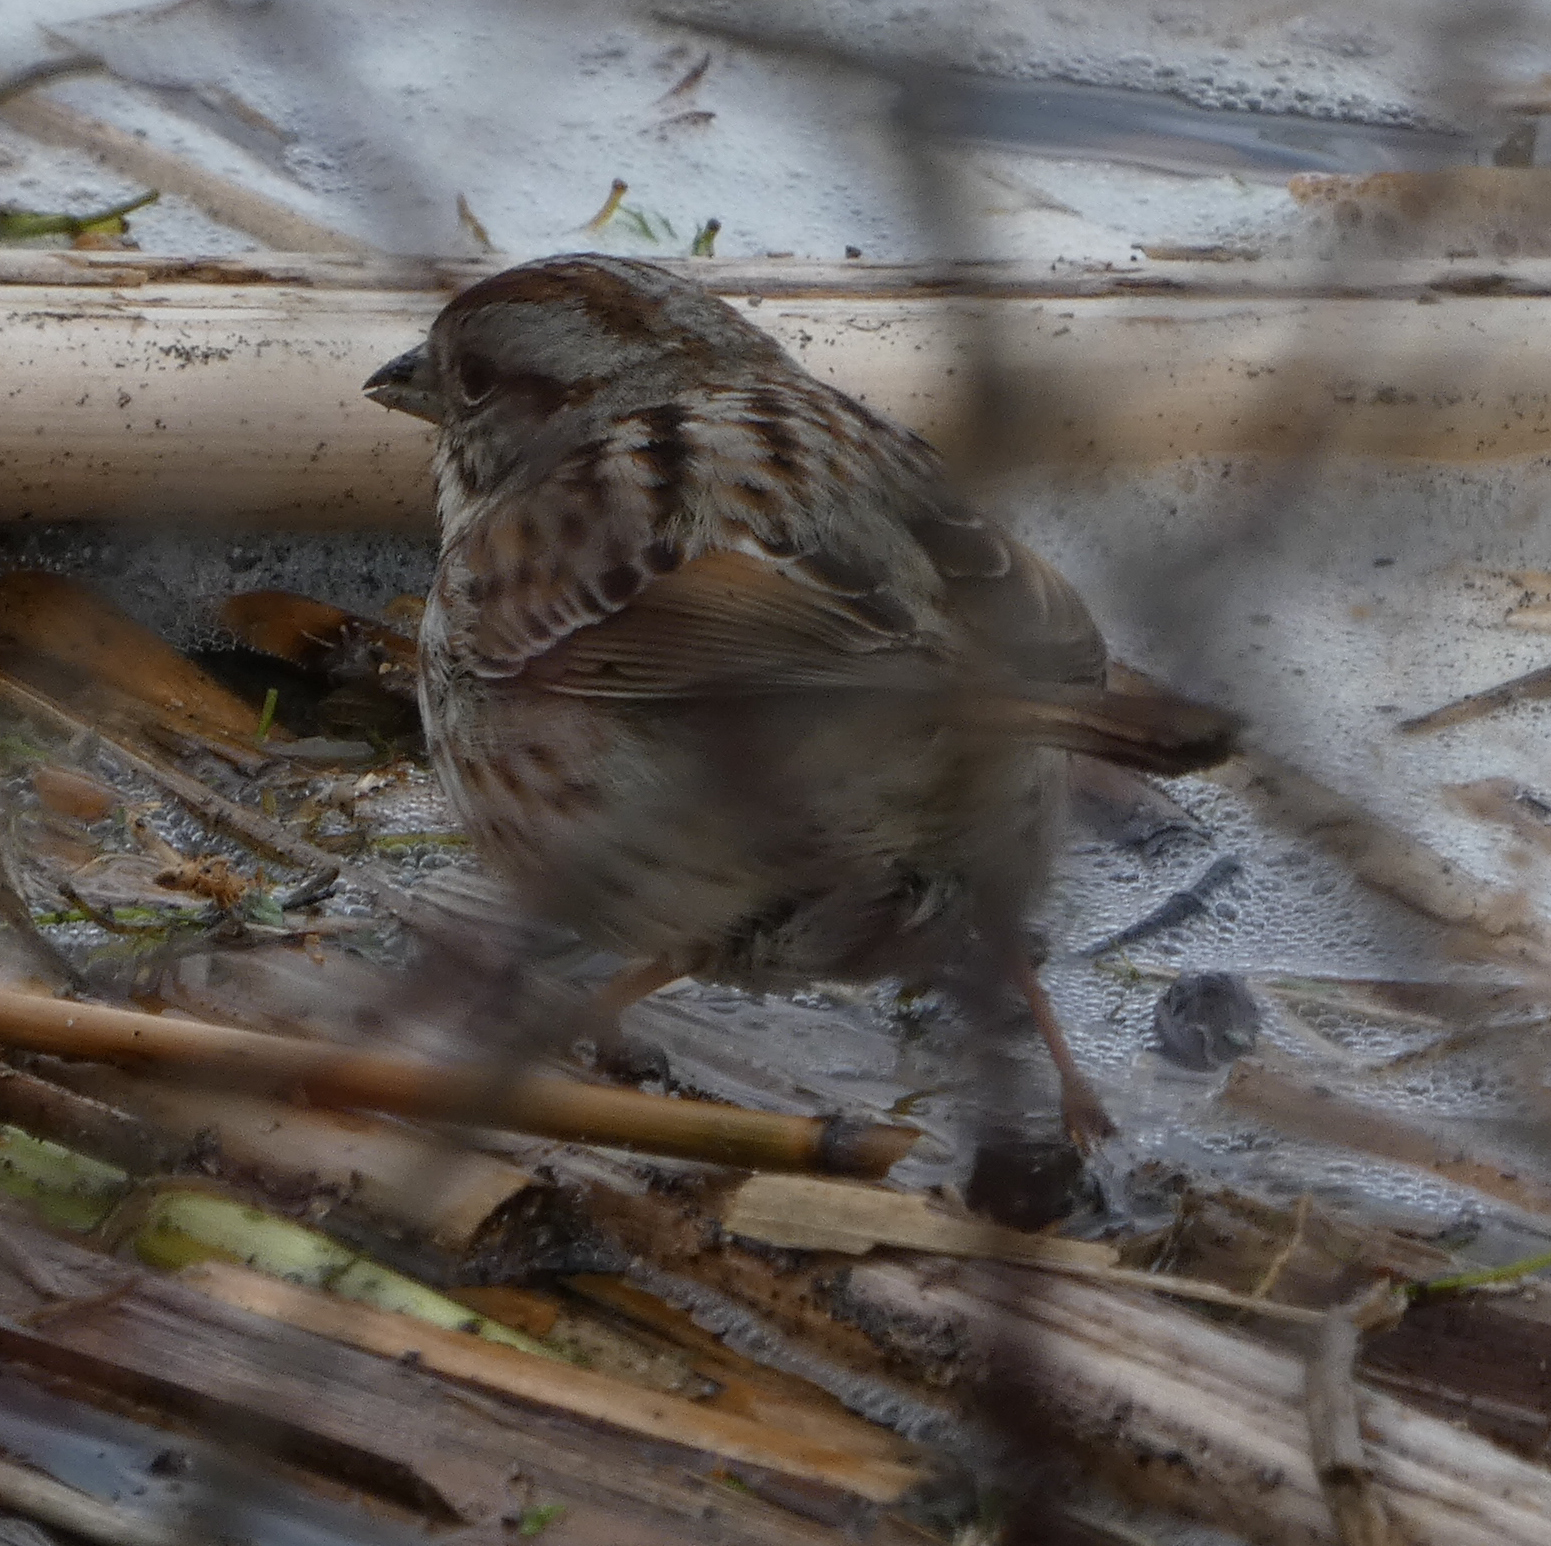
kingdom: Animalia
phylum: Chordata
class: Aves
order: Passeriformes
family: Passerellidae
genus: Melospiza
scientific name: Melospiza melodia
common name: Song sparrow
